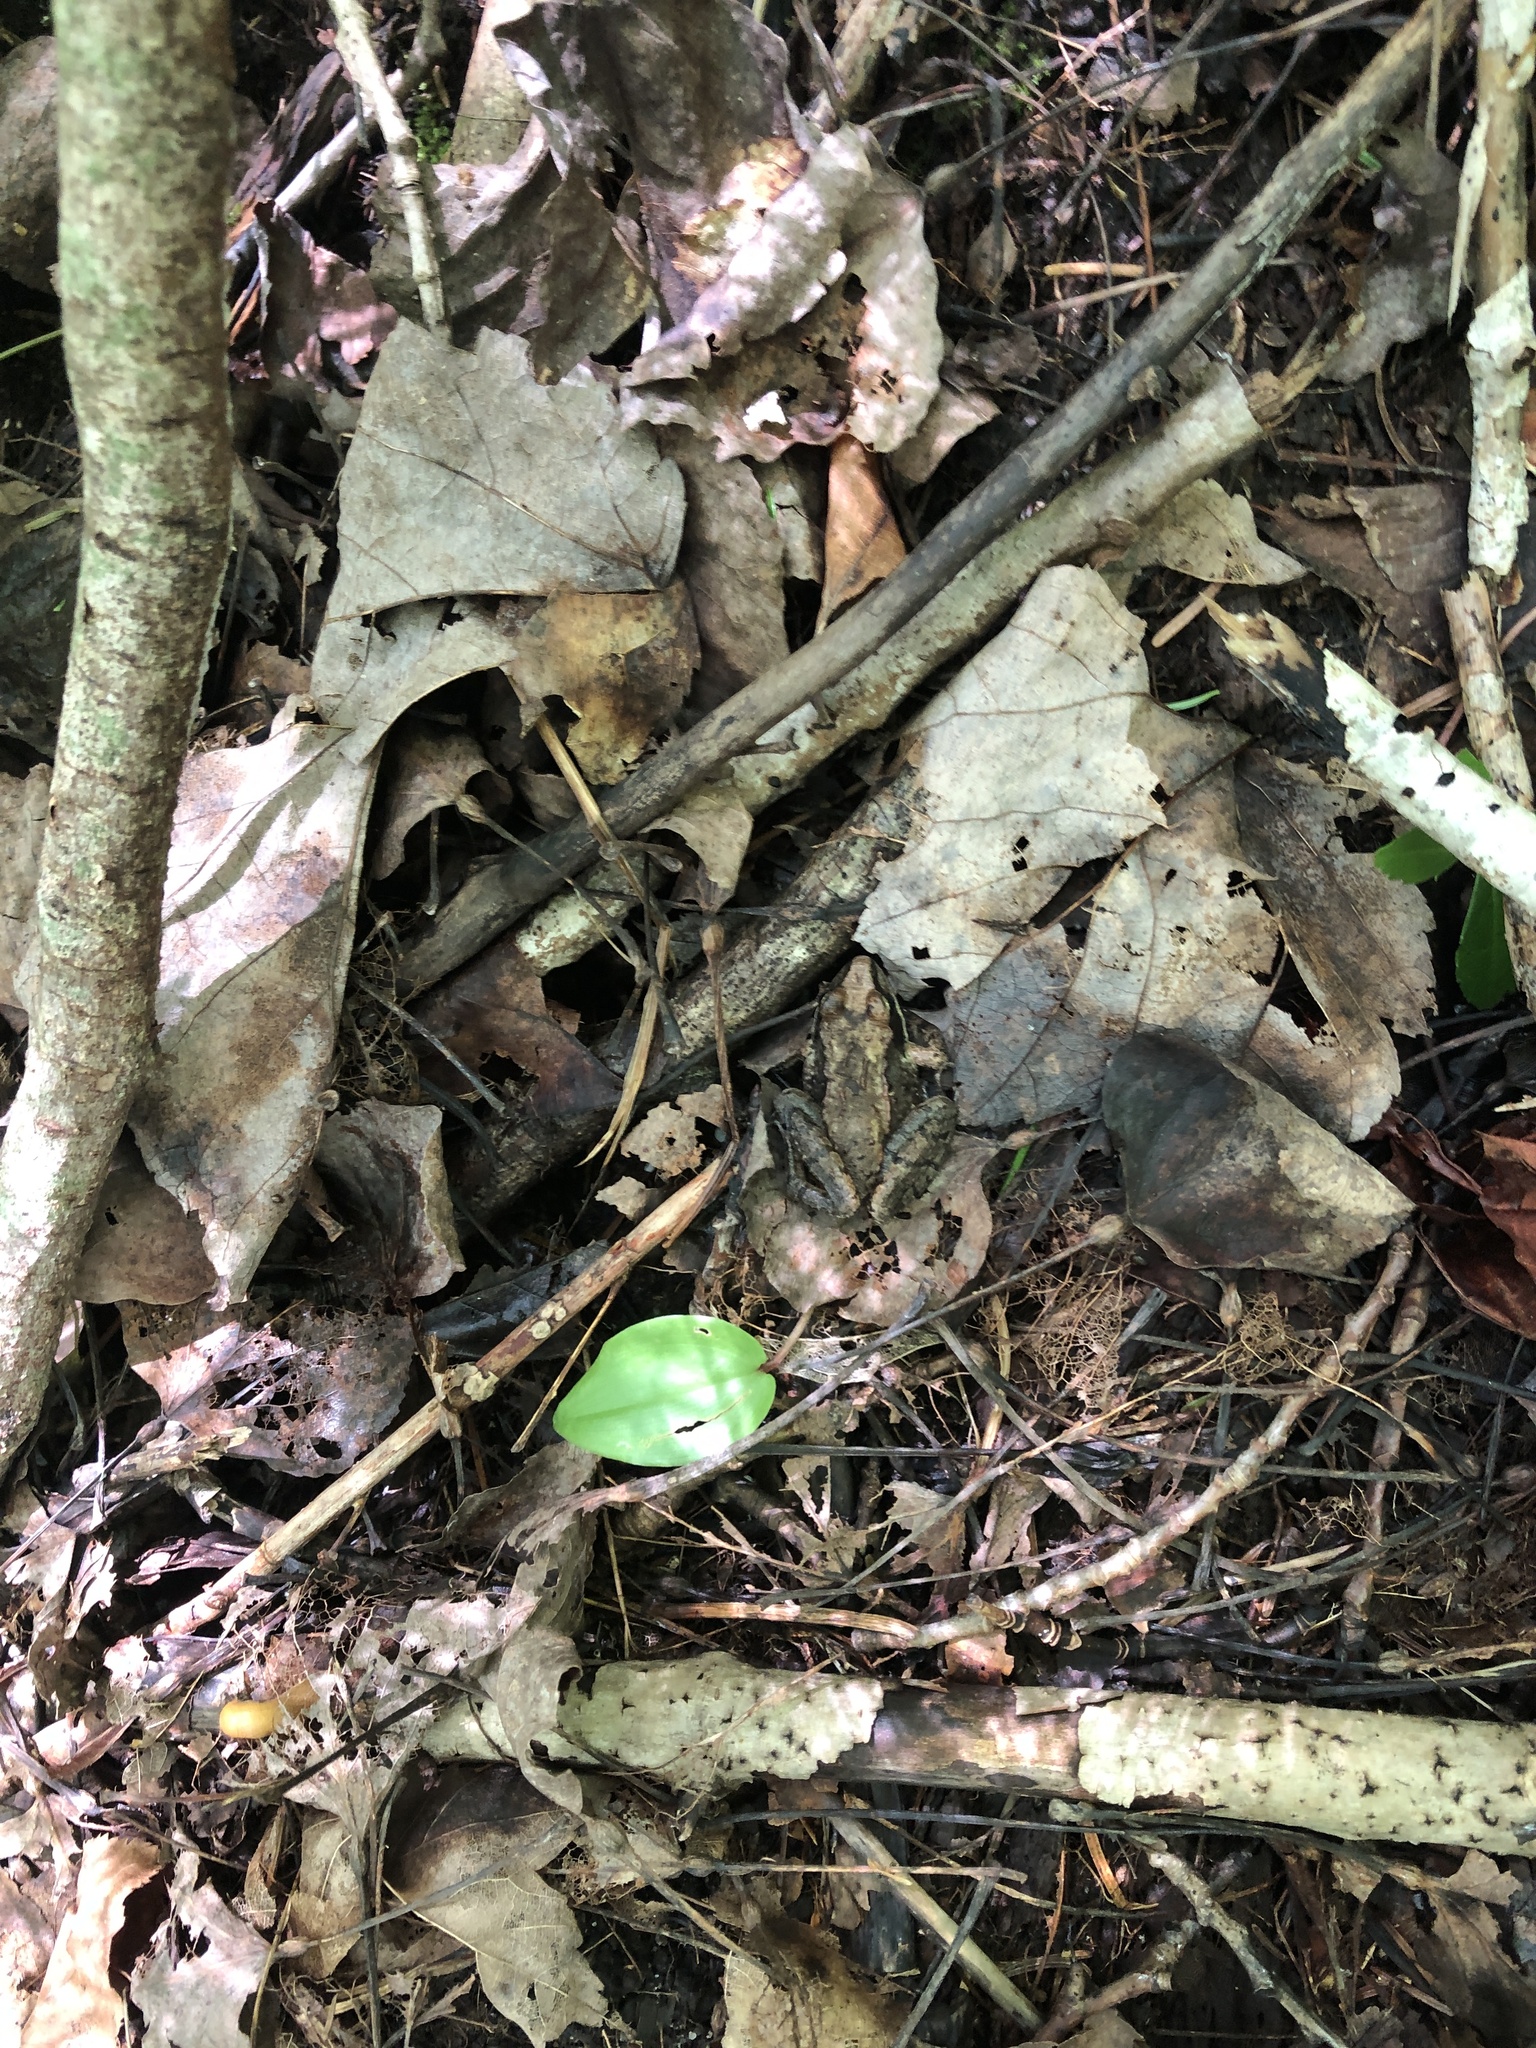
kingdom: Animalia
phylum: Chordata
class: Amphibia
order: Anura
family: Ranidae
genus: Lithobates
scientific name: Lithobates sylvaticus
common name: Wood frog
